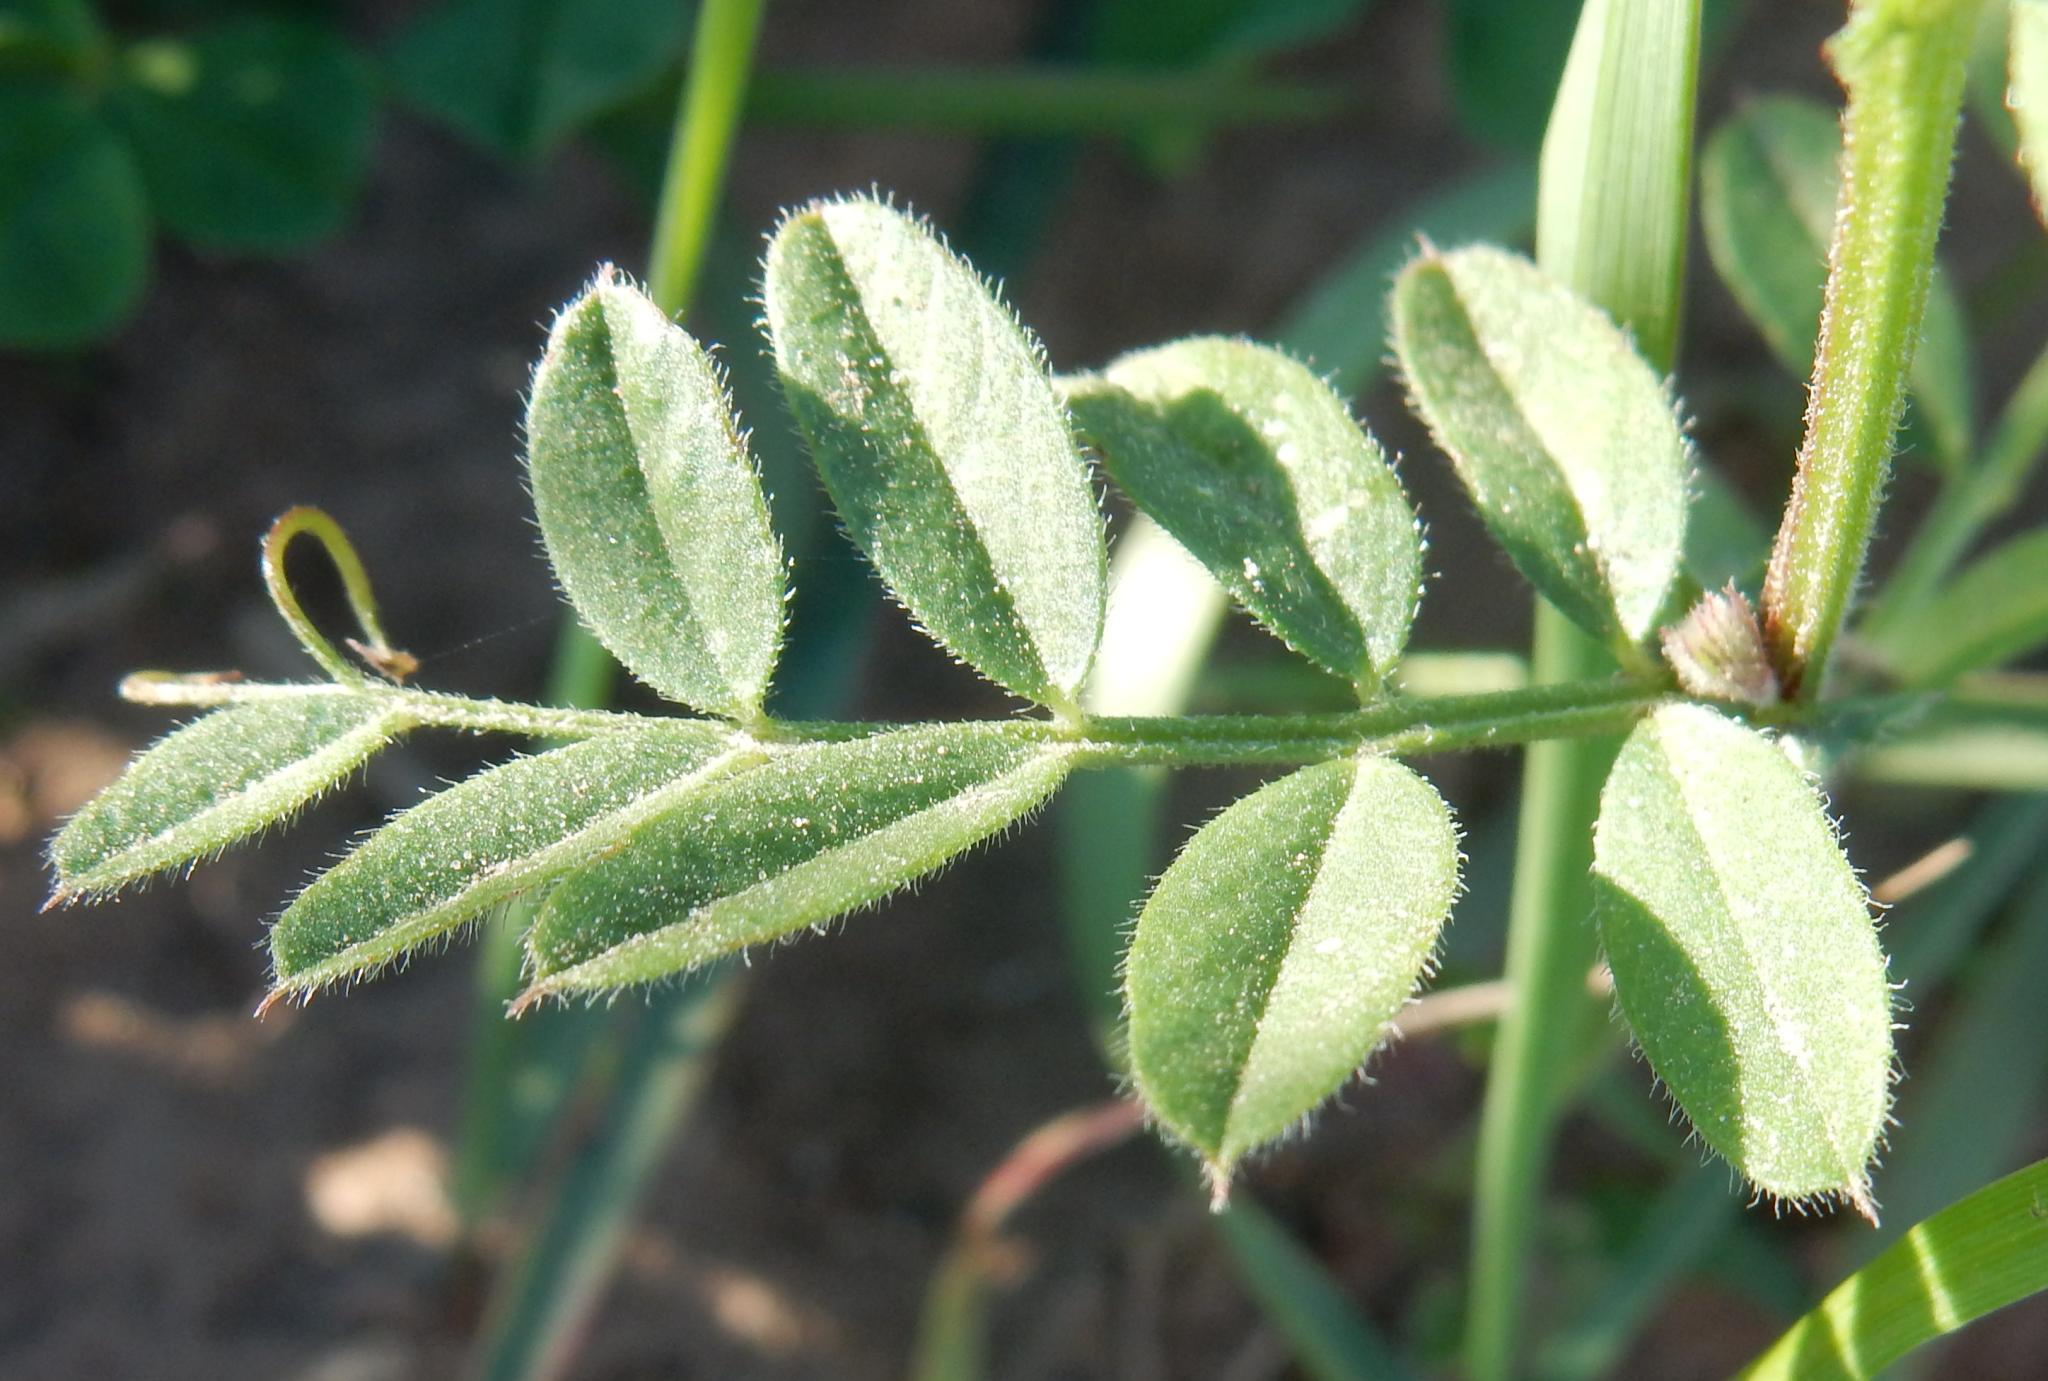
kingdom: Plantae
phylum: Tracheophyta
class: Magnoliopsida
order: Fabales
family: Fabaceae
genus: Vicia
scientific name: Vicia sativa
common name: Garden vetch
